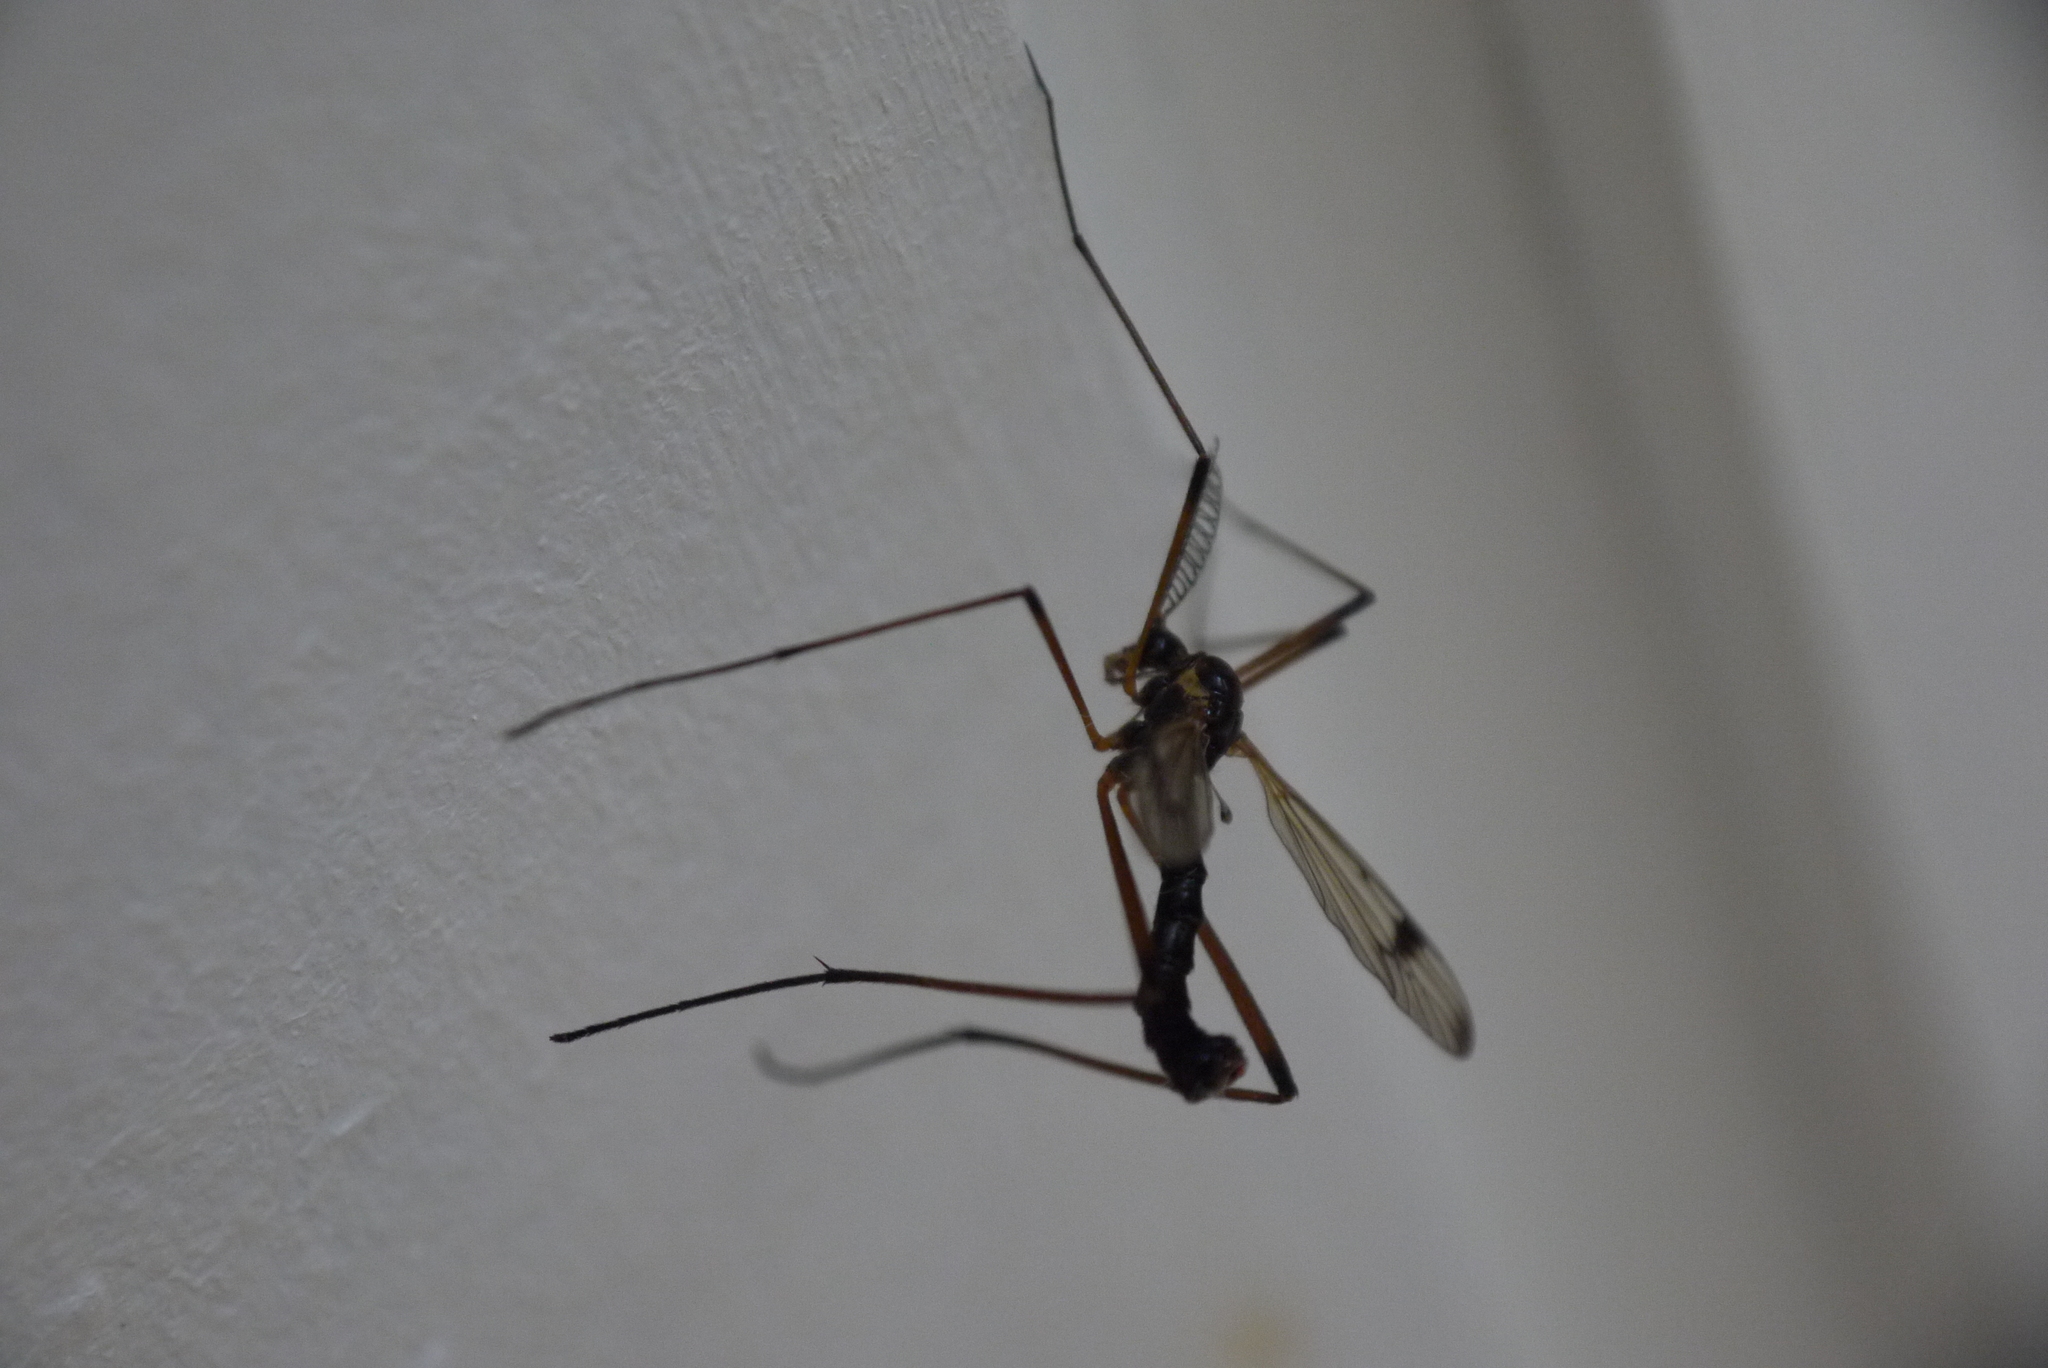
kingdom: Animalia
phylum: Arthropoda
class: Insecta
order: Diptera
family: Tipulidae
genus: Dictenidia
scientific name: Dictenidia bimaculata
